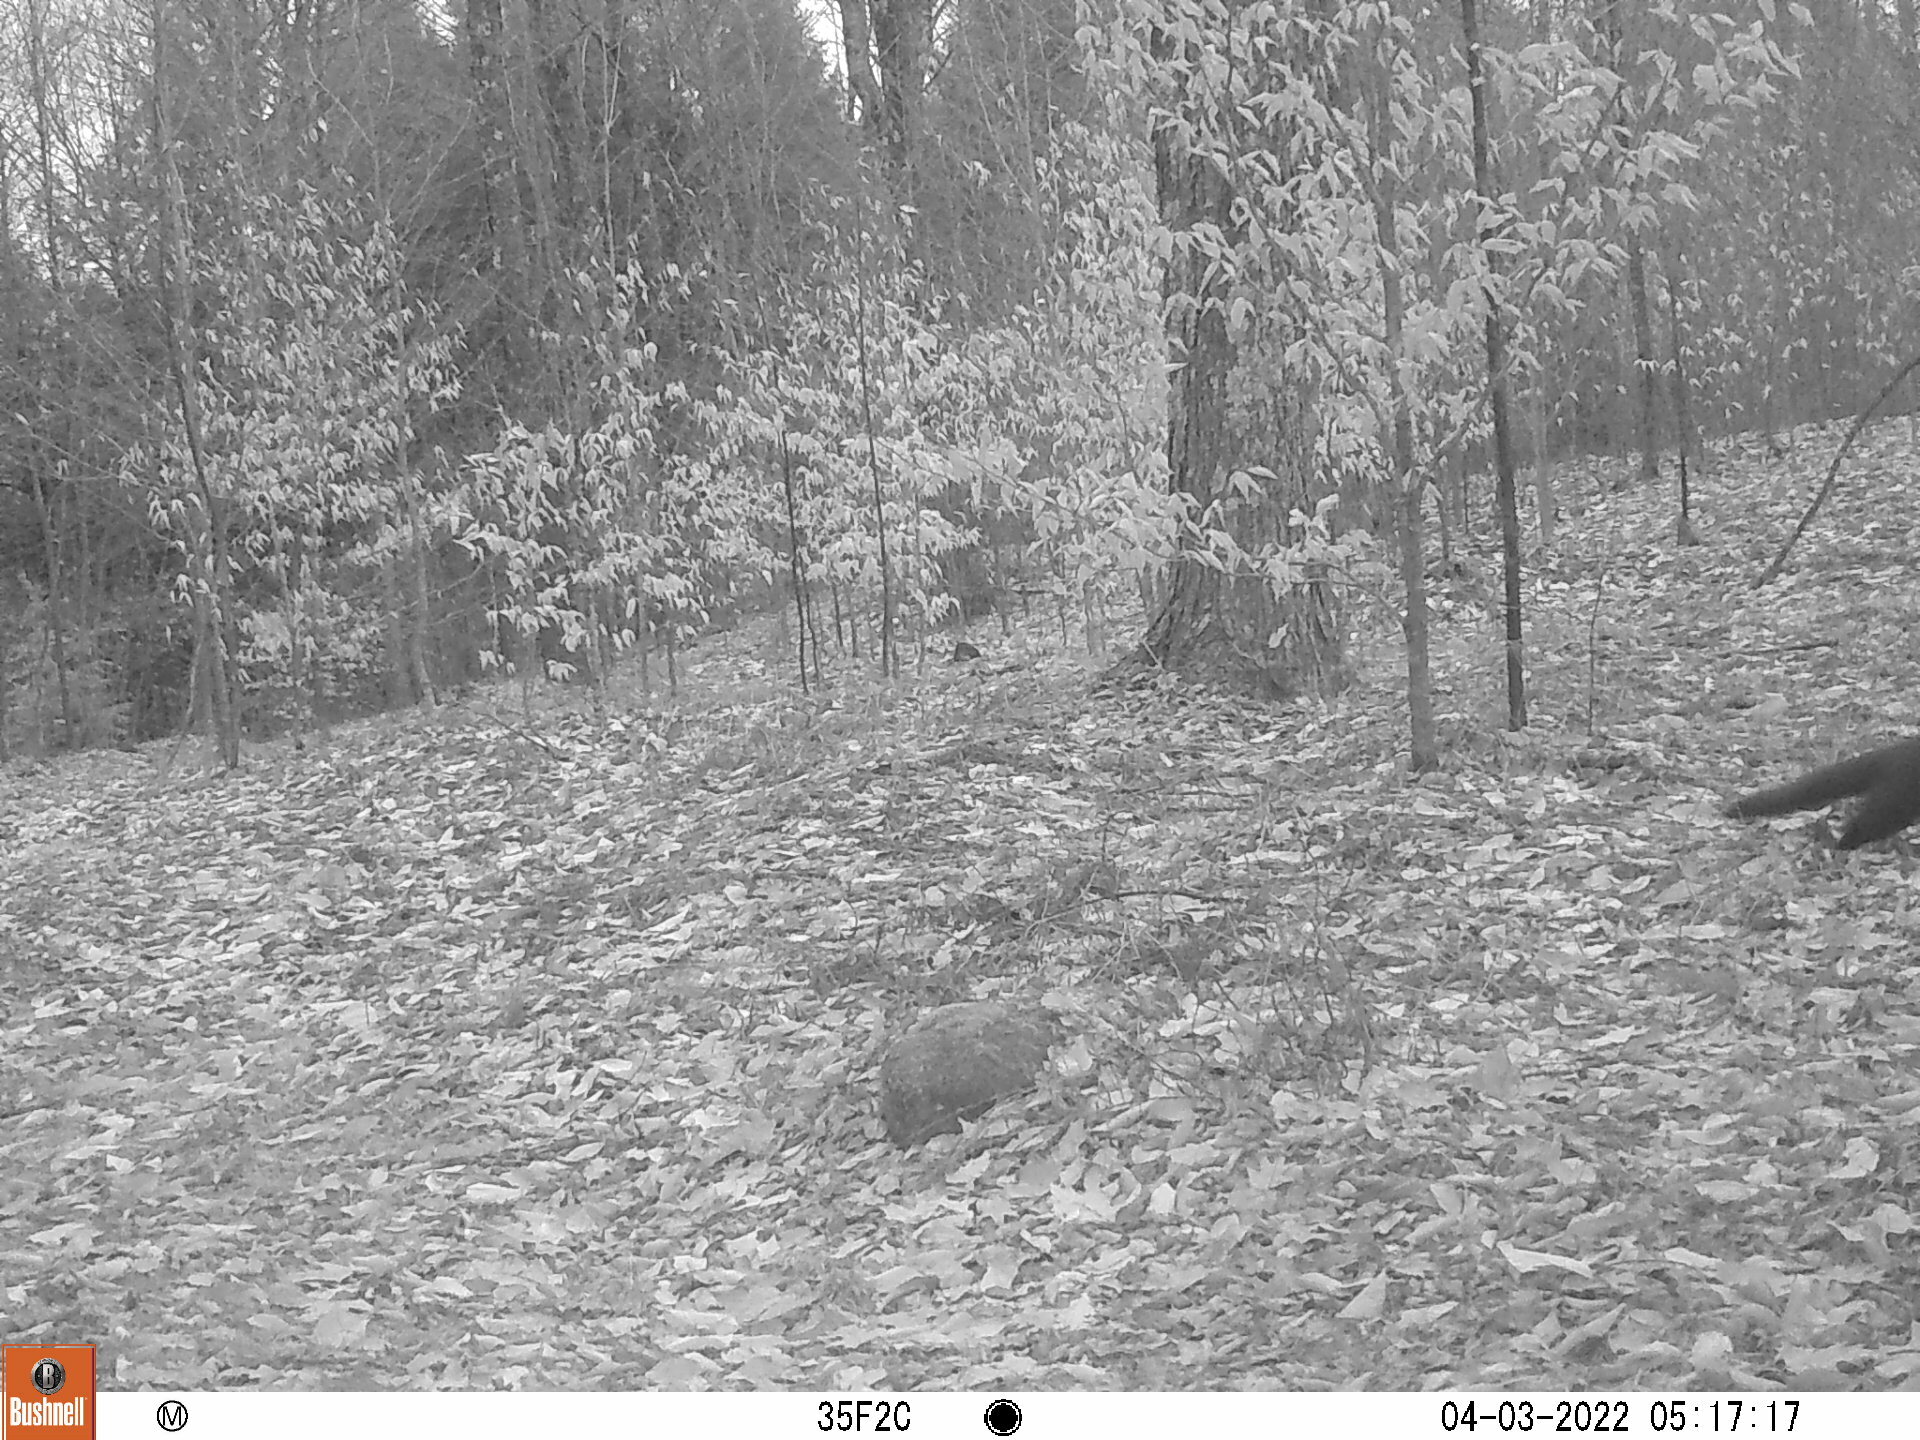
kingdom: Animalia
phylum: Chordata
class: Mammalia
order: Carnivora
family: Mustelidae
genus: Pekania
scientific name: Pekania pennanti
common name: Fisher
